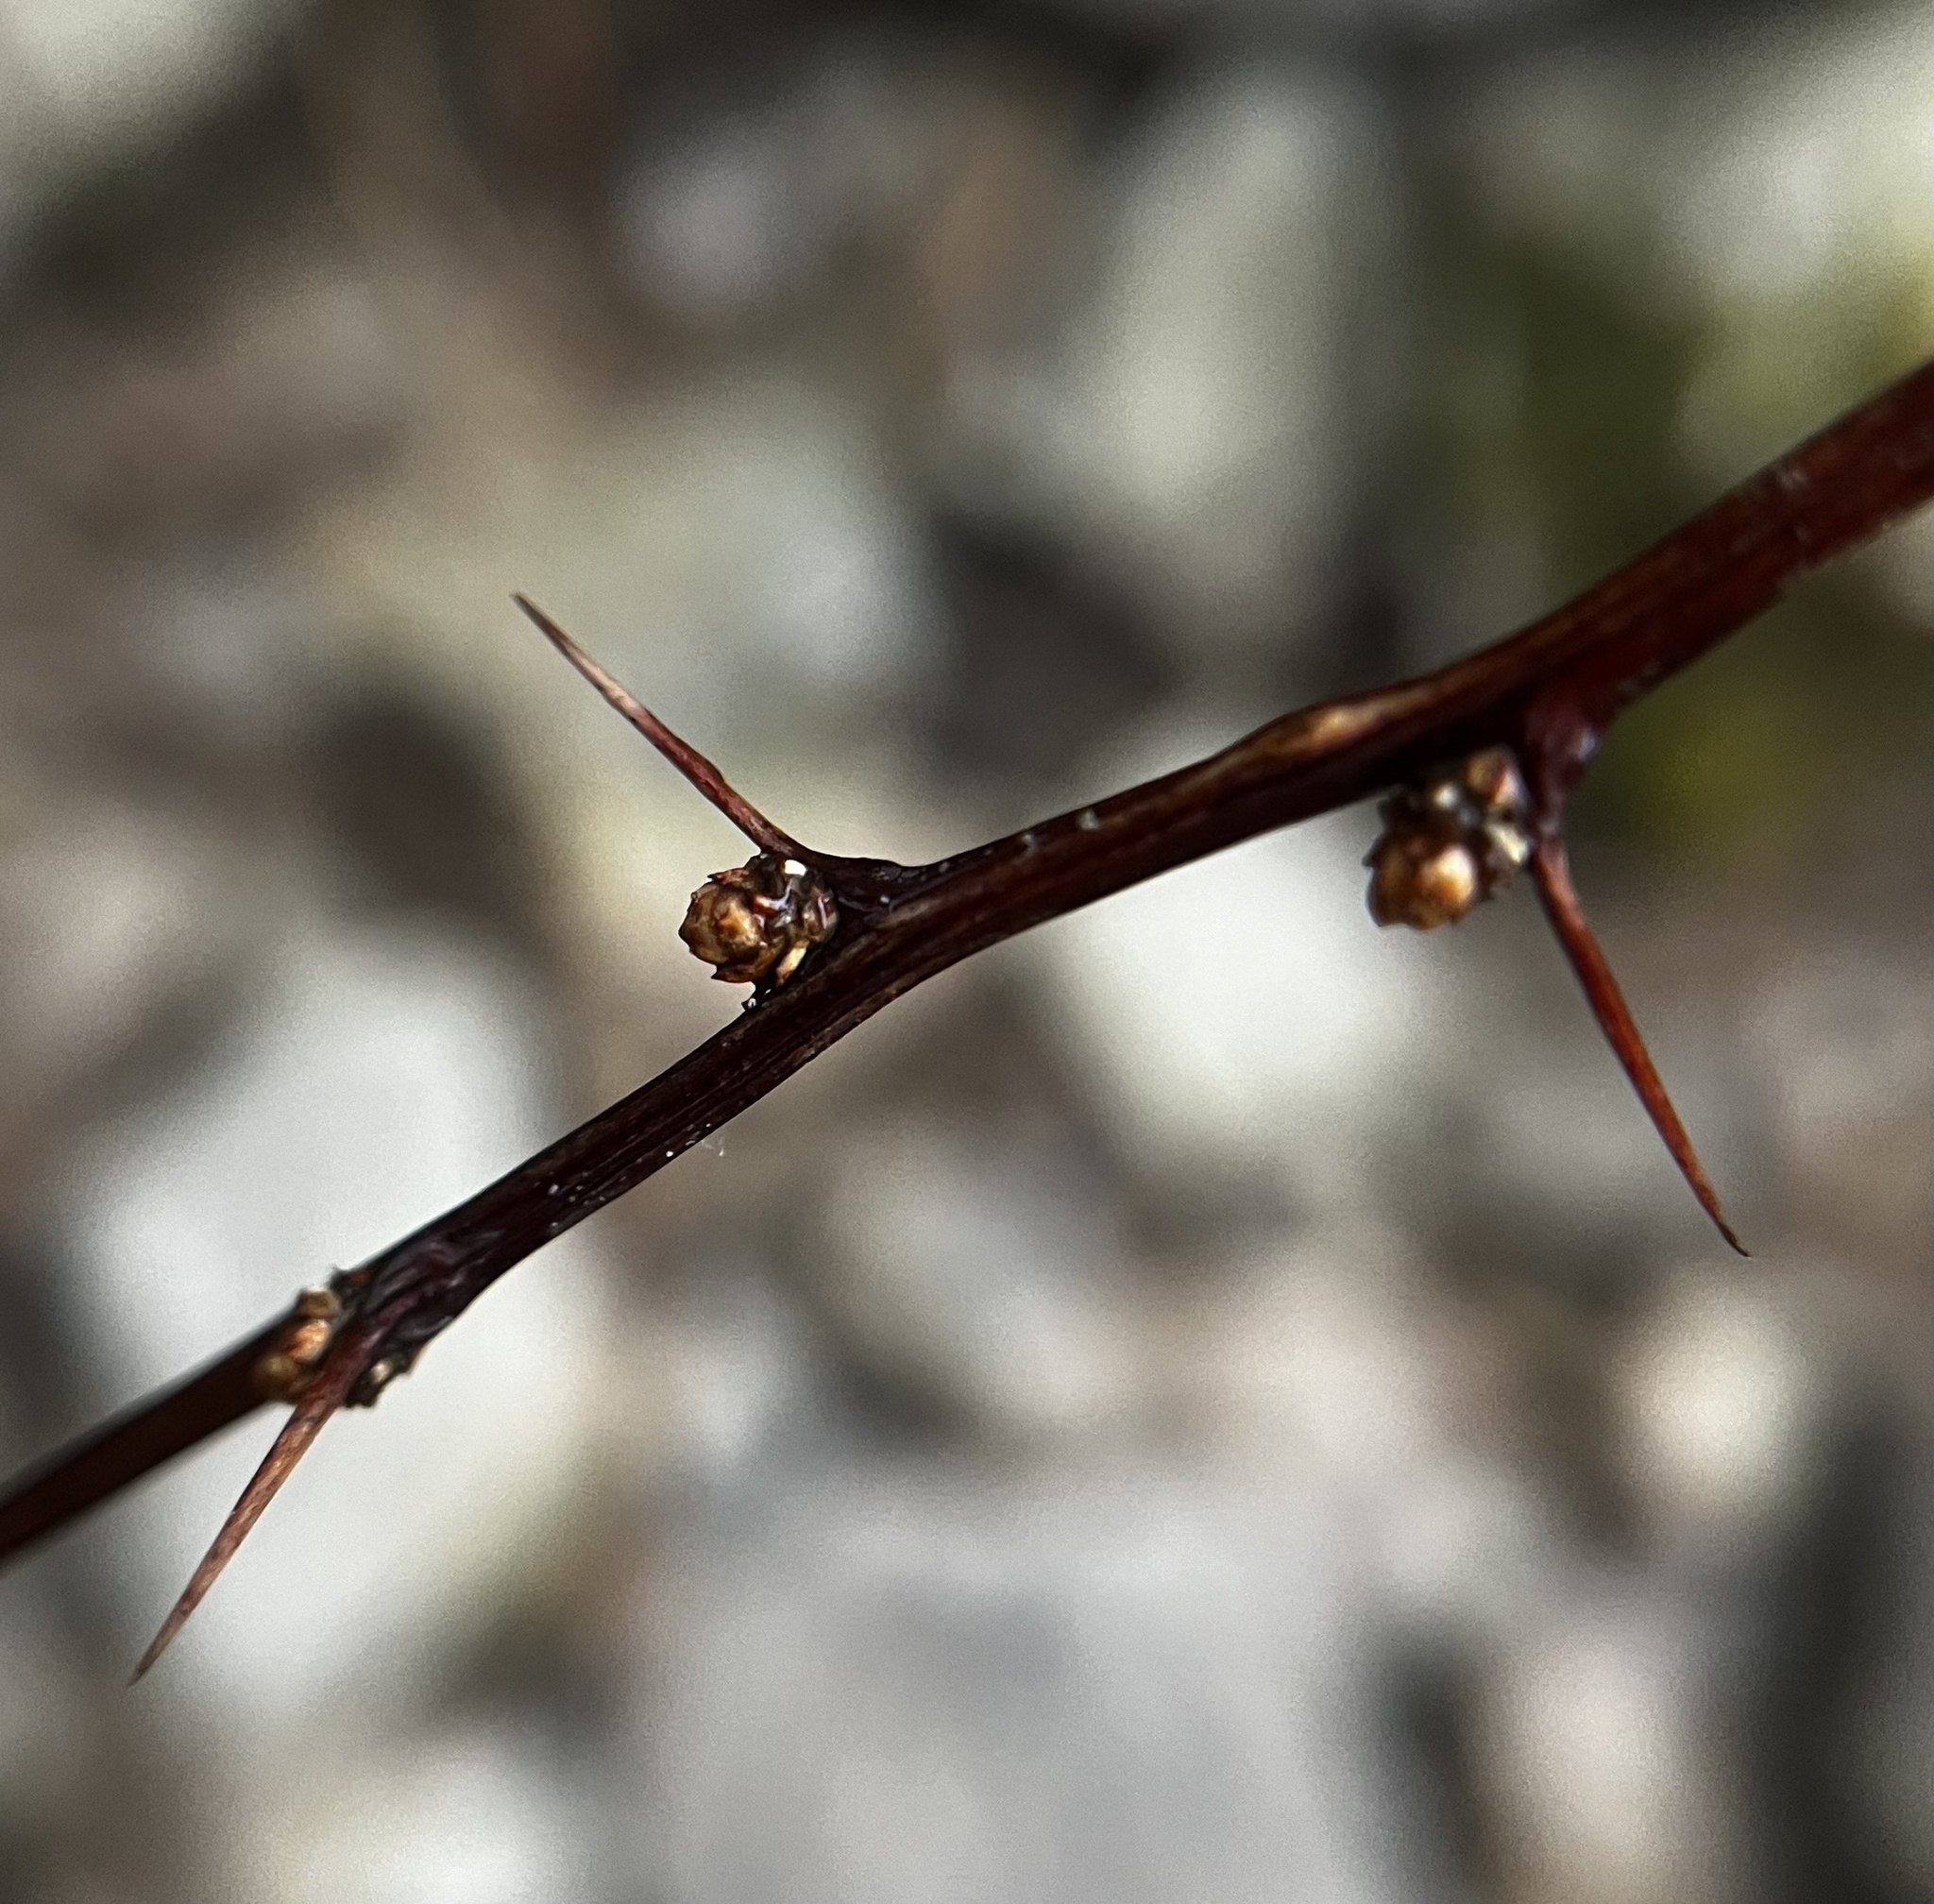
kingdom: Plantae
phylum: Tracheophyta
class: Magnoliopsida
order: Ranunculales
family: Berberidaceae
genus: Berberis
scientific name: Berberis thunbergii
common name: Japanese barberry
